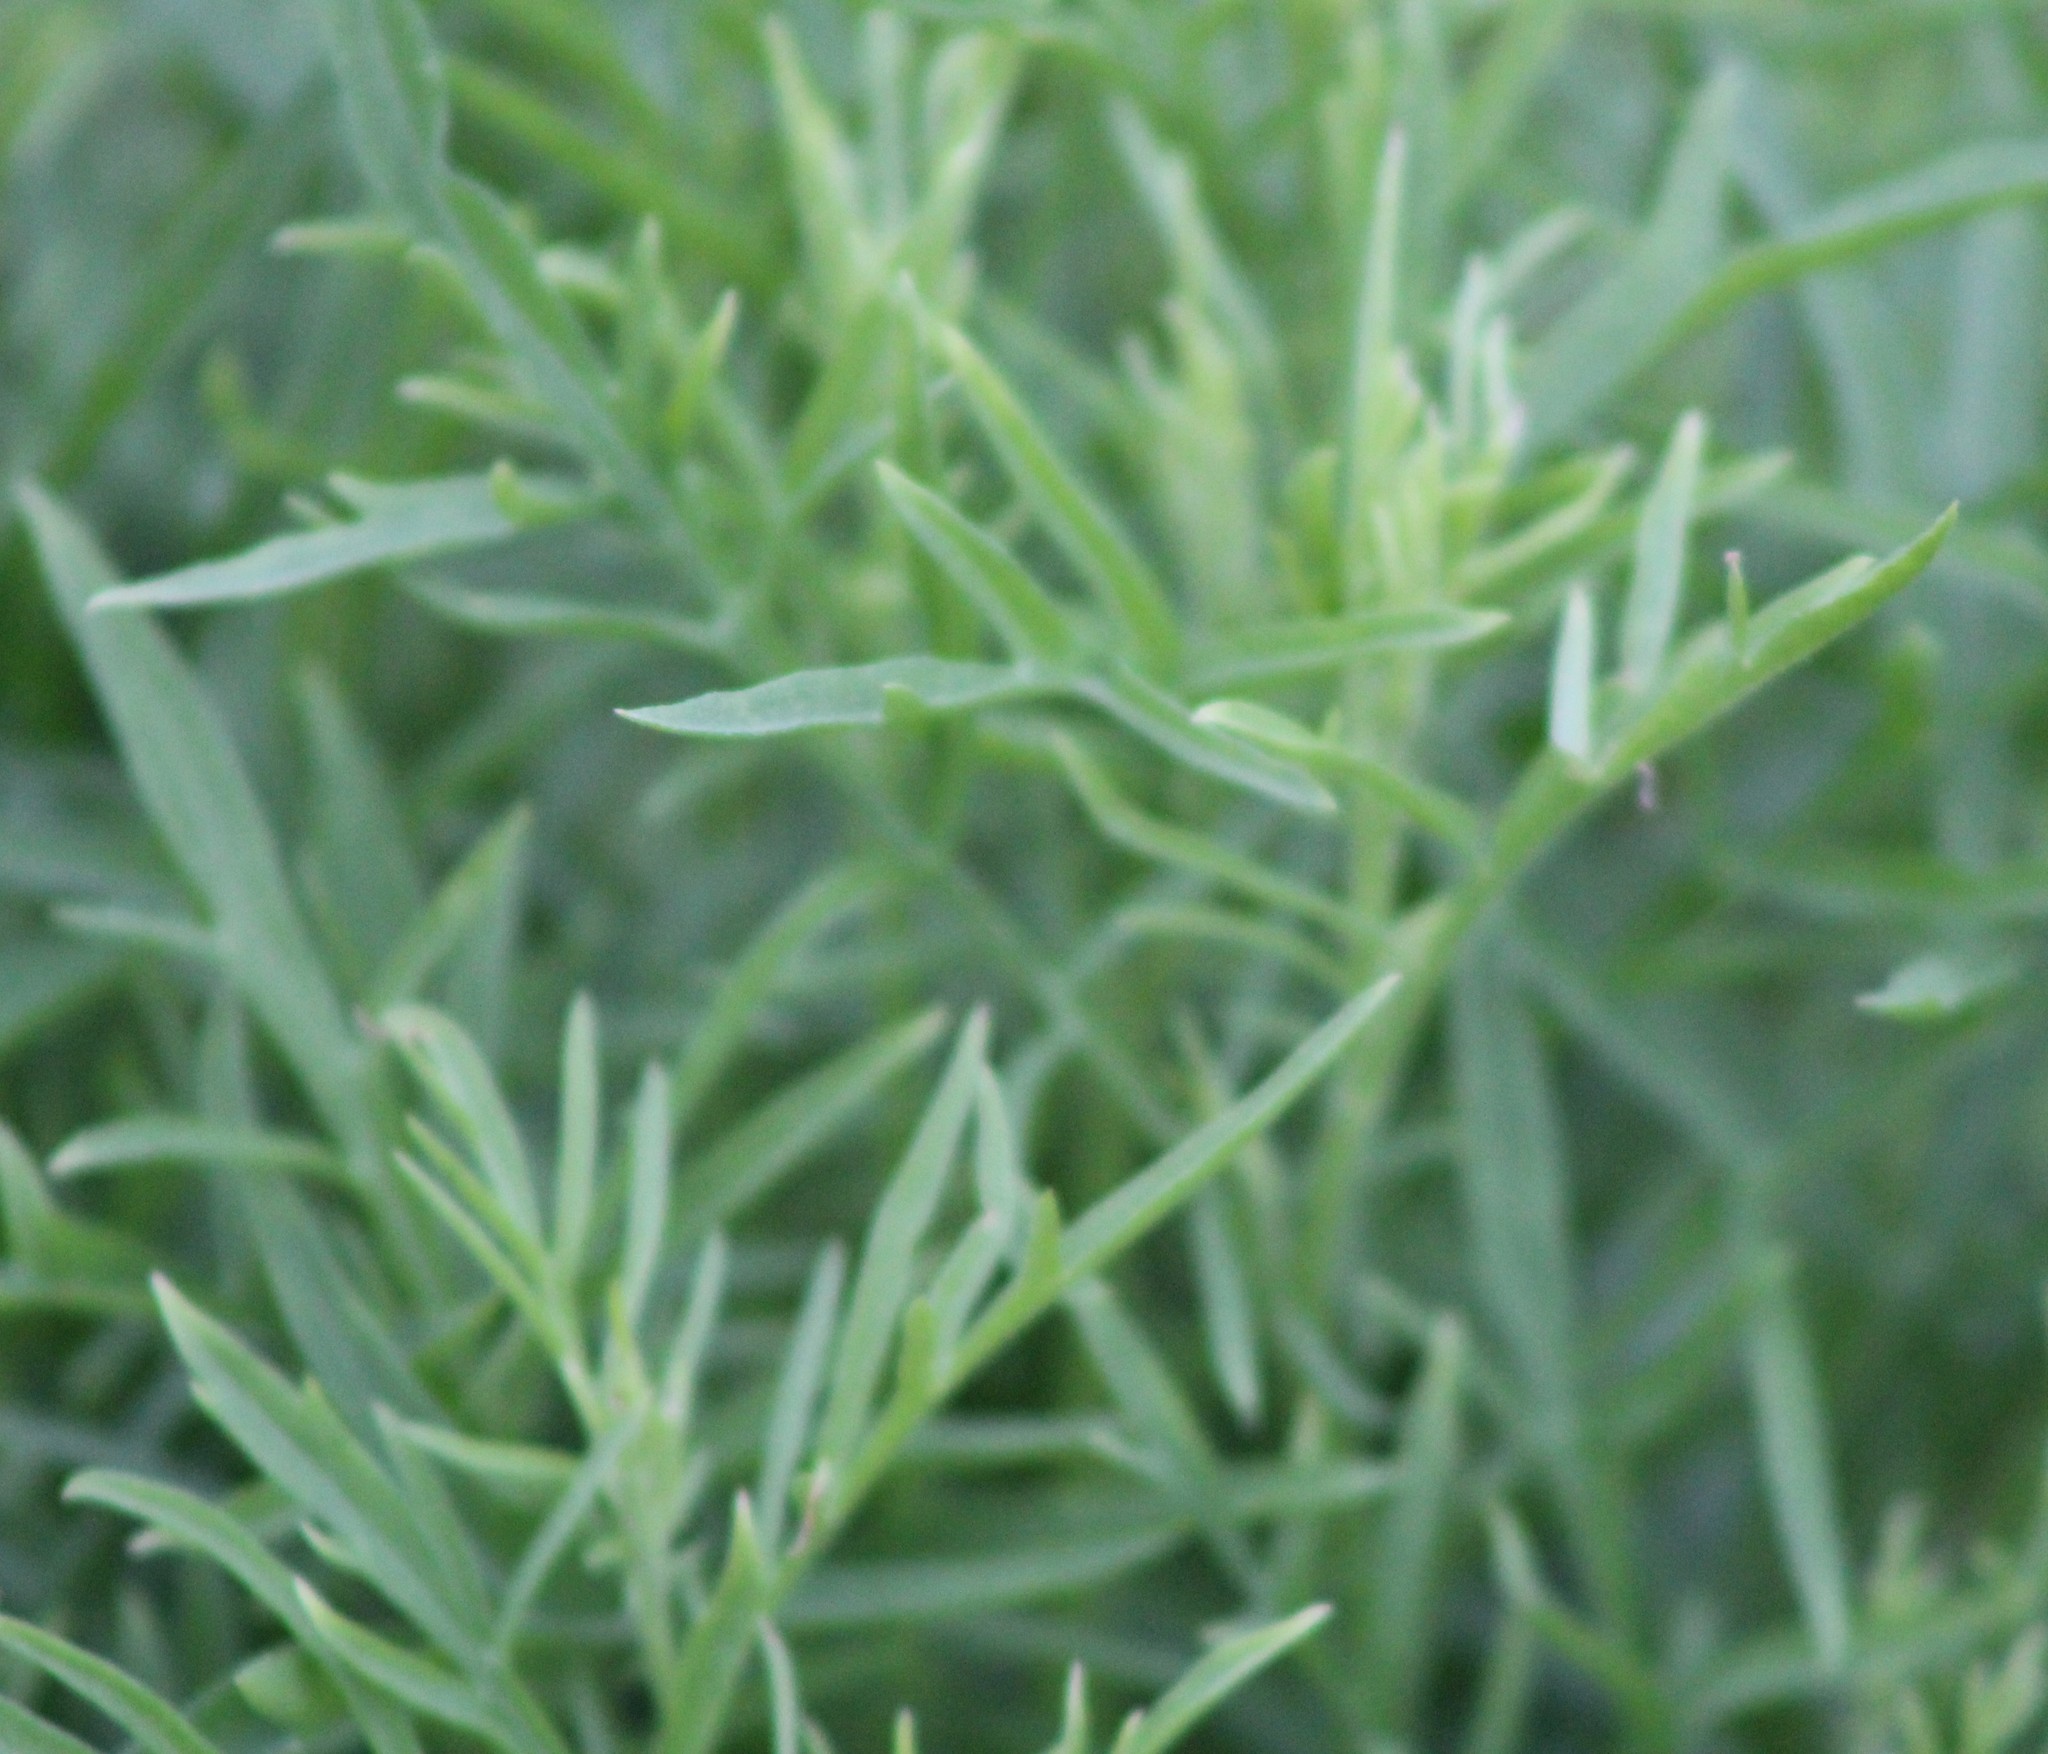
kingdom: Plantae
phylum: Tracheophyta
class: Magnoliopsida
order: Asterales
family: Asteraceae
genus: Ratibida
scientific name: Ratibida columnifera
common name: Prairie coneflower
